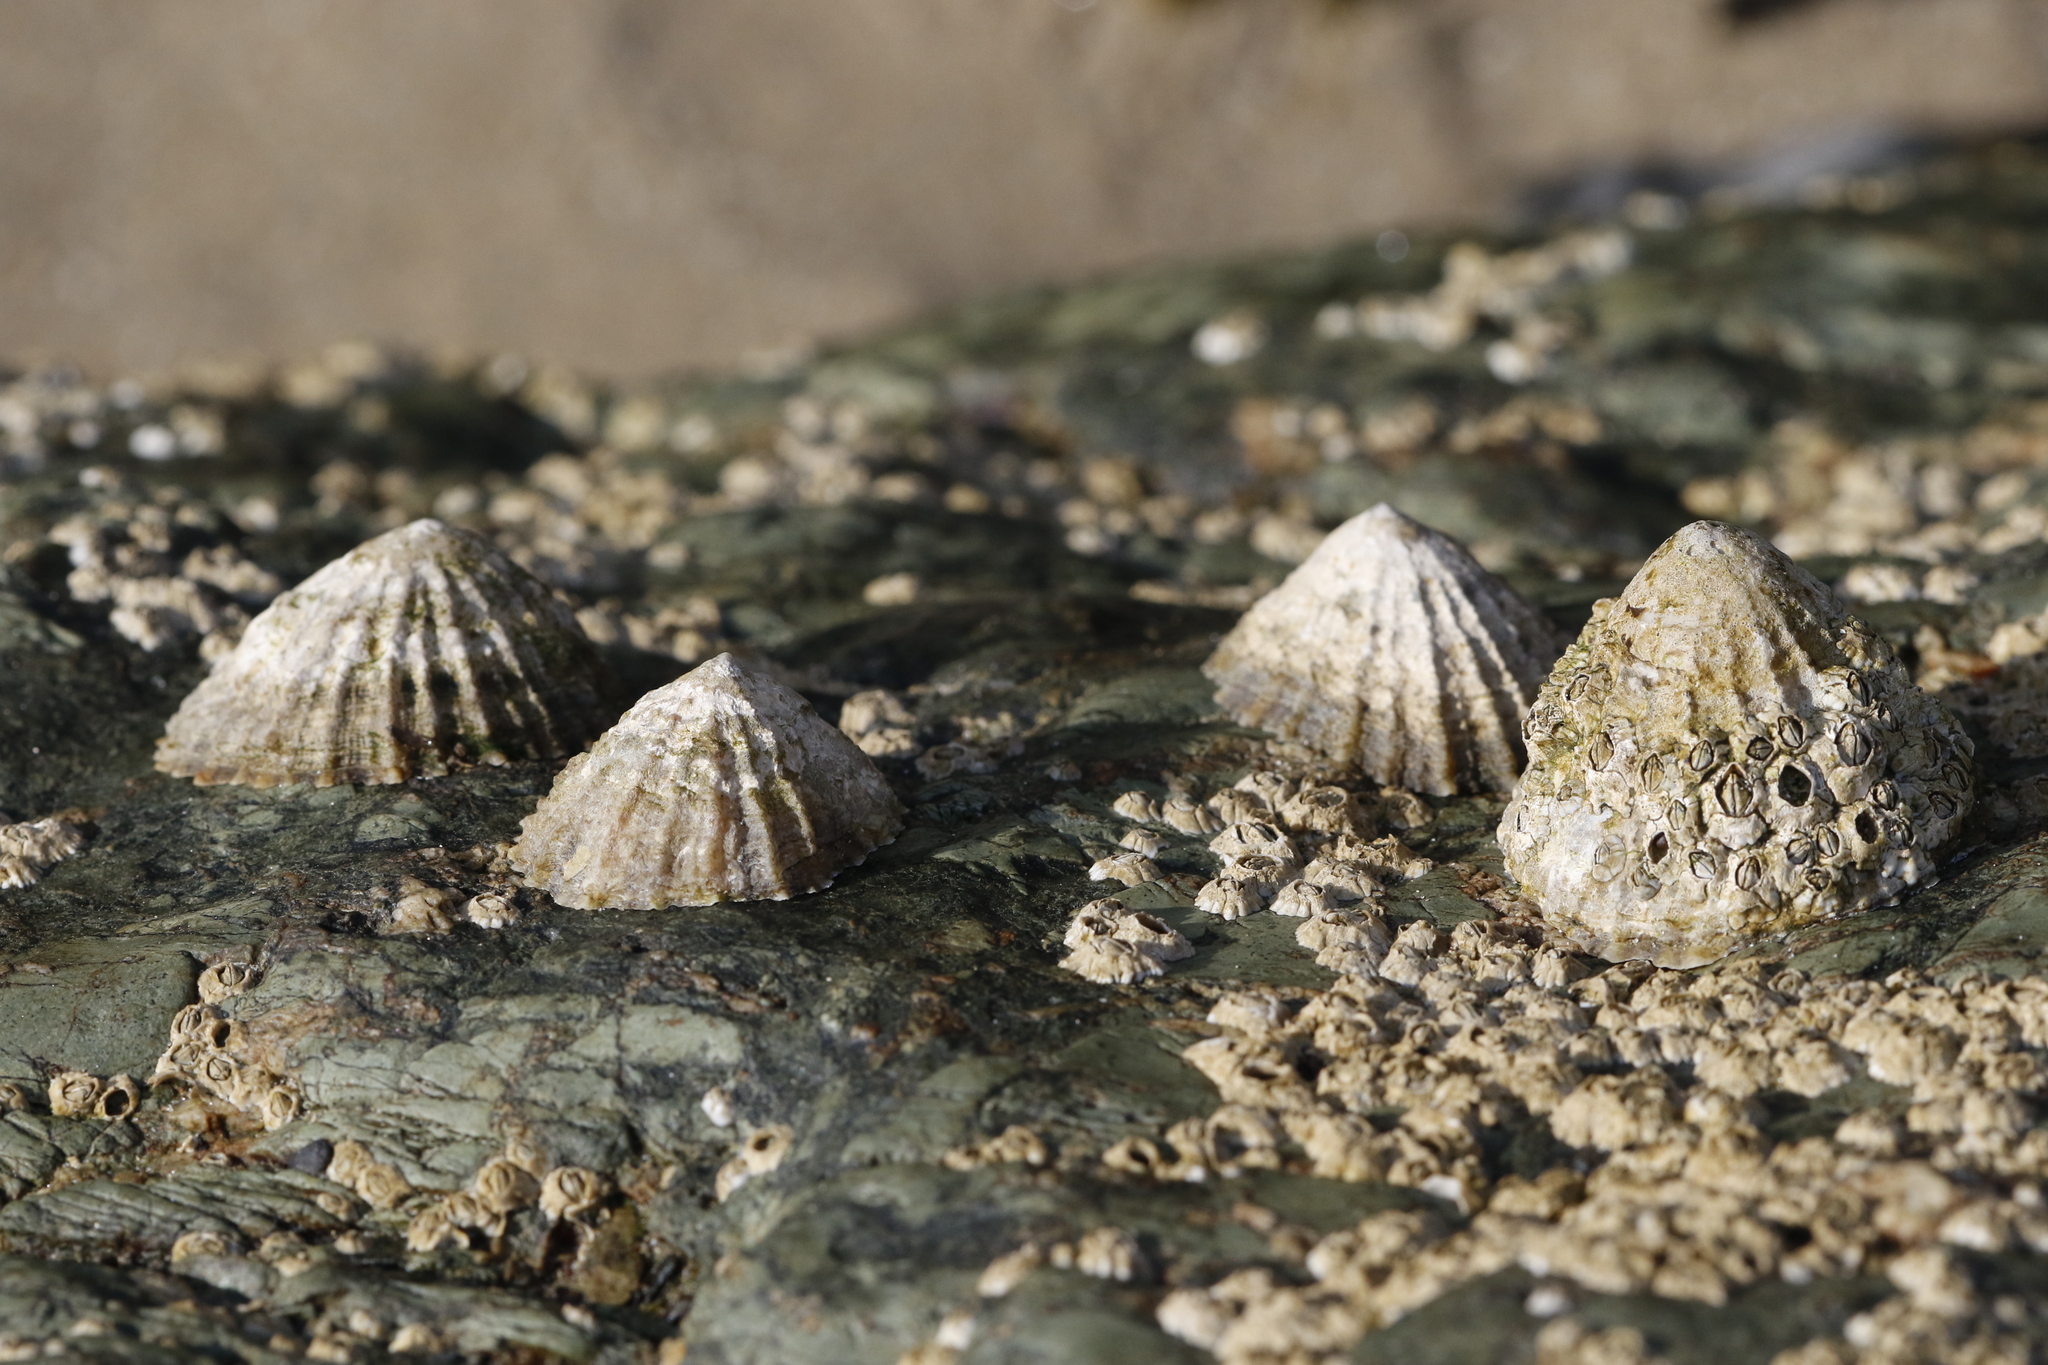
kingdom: Animalia
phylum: Mollusca
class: Gastropoda
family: Patellidae
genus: Patella
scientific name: Patella vulgata
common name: Common limpet
